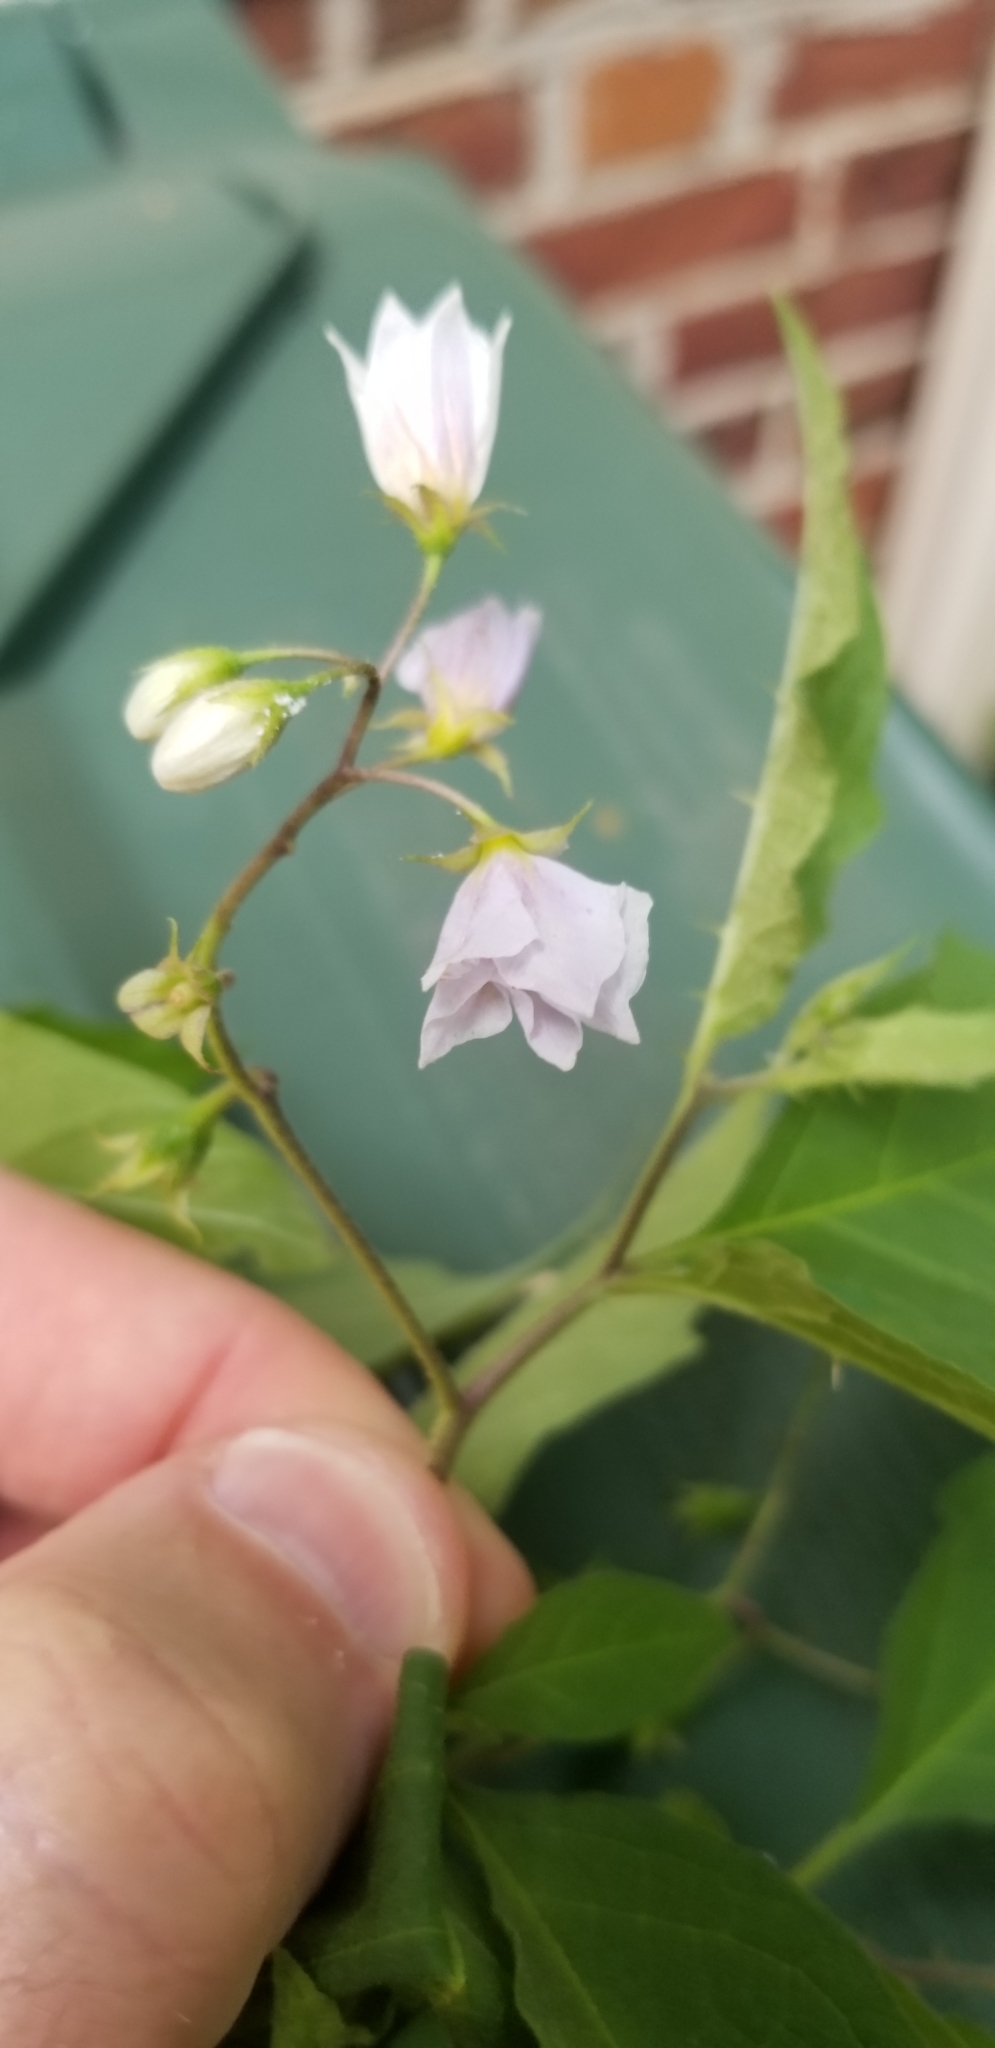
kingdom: Plantae
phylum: Tracheophyta
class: Magnoliopsida
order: Solanales
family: Solanaceae
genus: Solanum
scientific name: Solanum carolinense
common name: Horse-nettle
